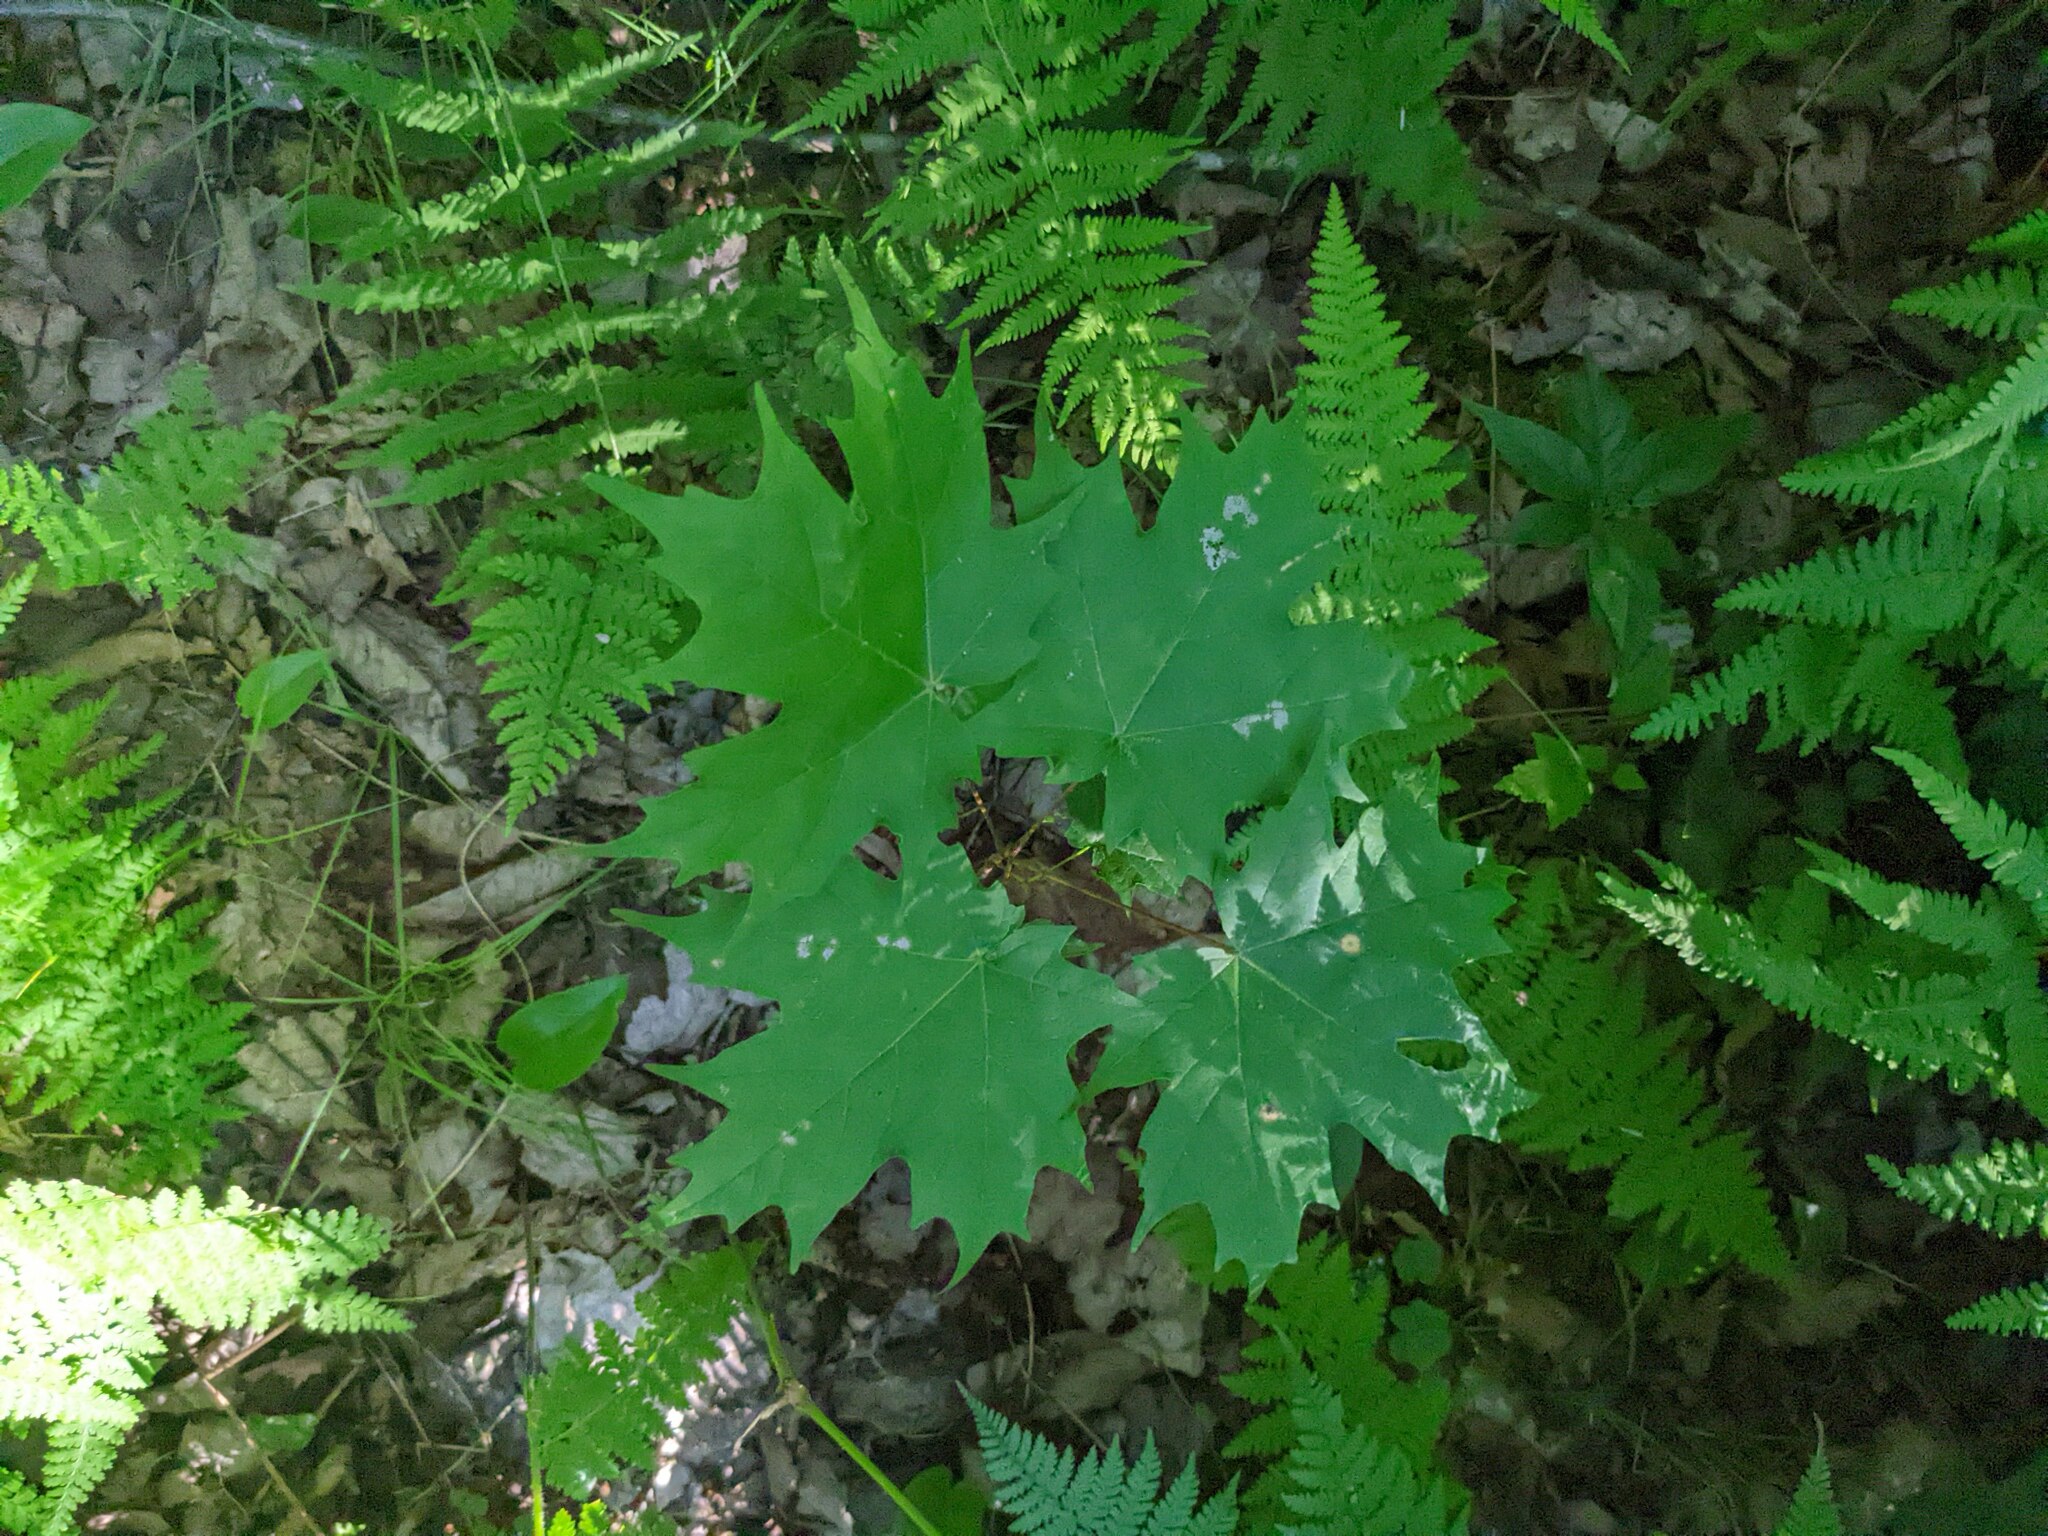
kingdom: Plantae
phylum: Tracheophyta
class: Magnoliopsida
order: Sapindales
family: Sapindaceae
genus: Acer
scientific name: Acer saccharum
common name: Sugar maple
